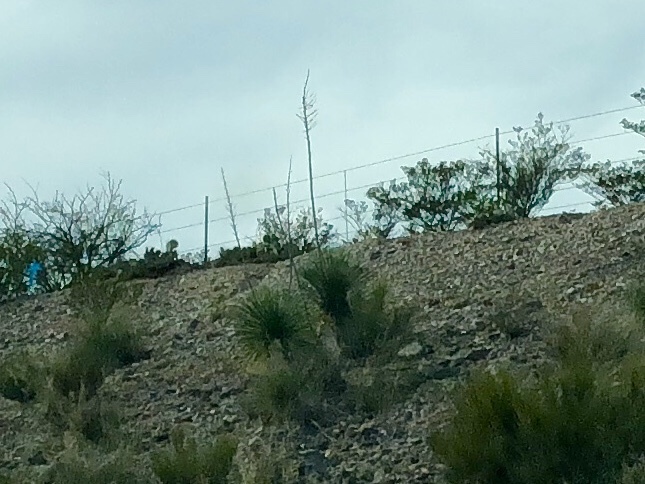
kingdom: Plantae
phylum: Tracheophyta
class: Liliopsida
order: Asparagales
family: Asparagaceae
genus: Yucca
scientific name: Yucca elata
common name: Palmella
